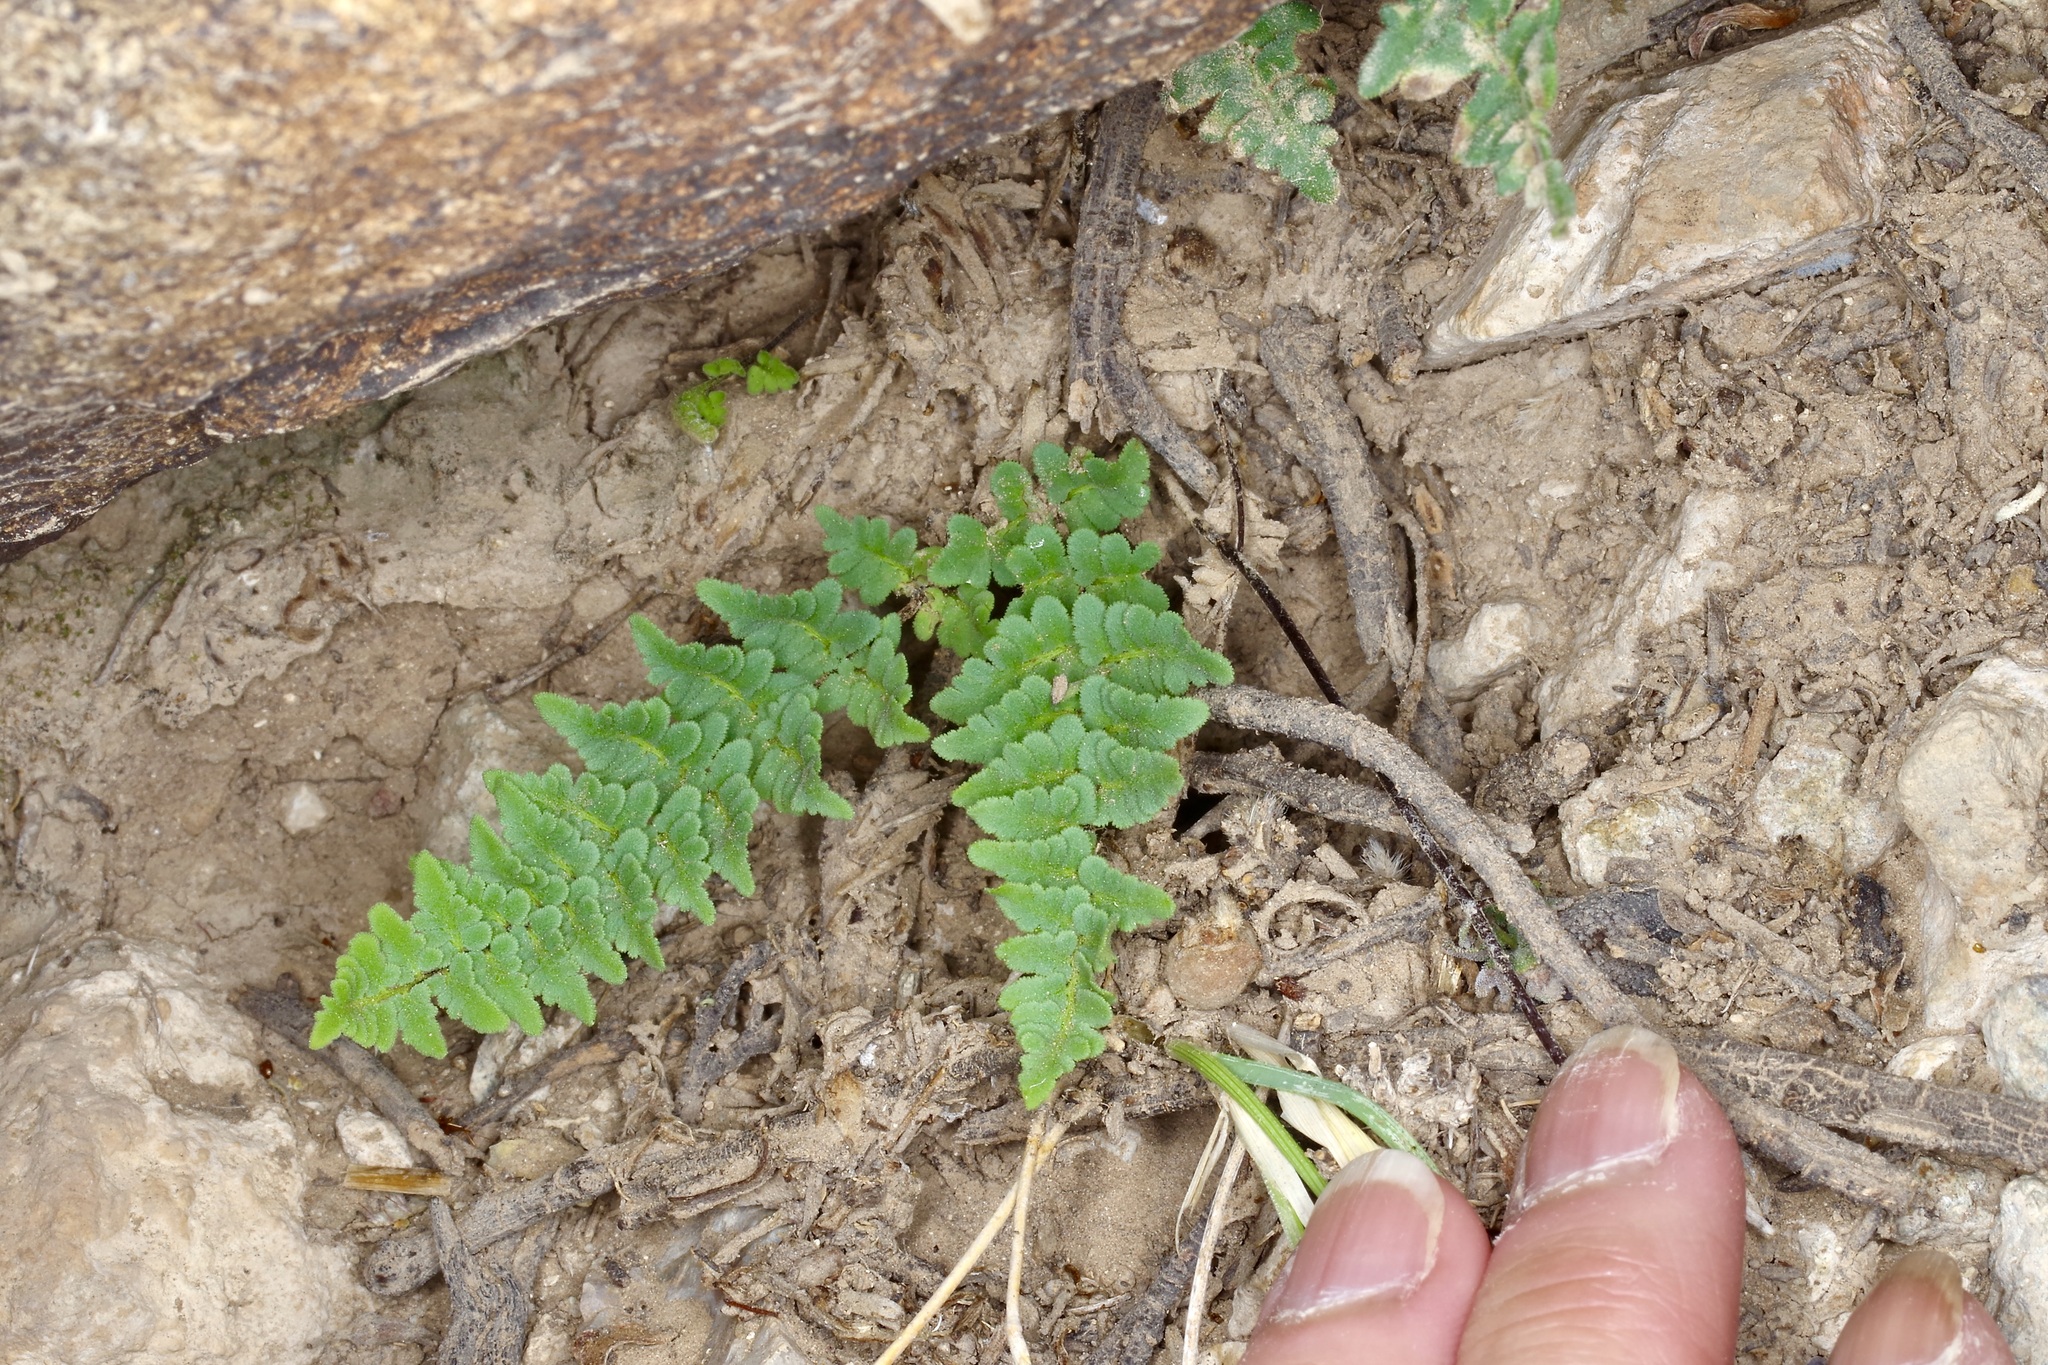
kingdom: Plantae
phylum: Tracheophyta
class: Polypodiopsida
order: Polypodiales
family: Pteridaceae
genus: Myriopteris
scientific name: Myriopteris scabra
